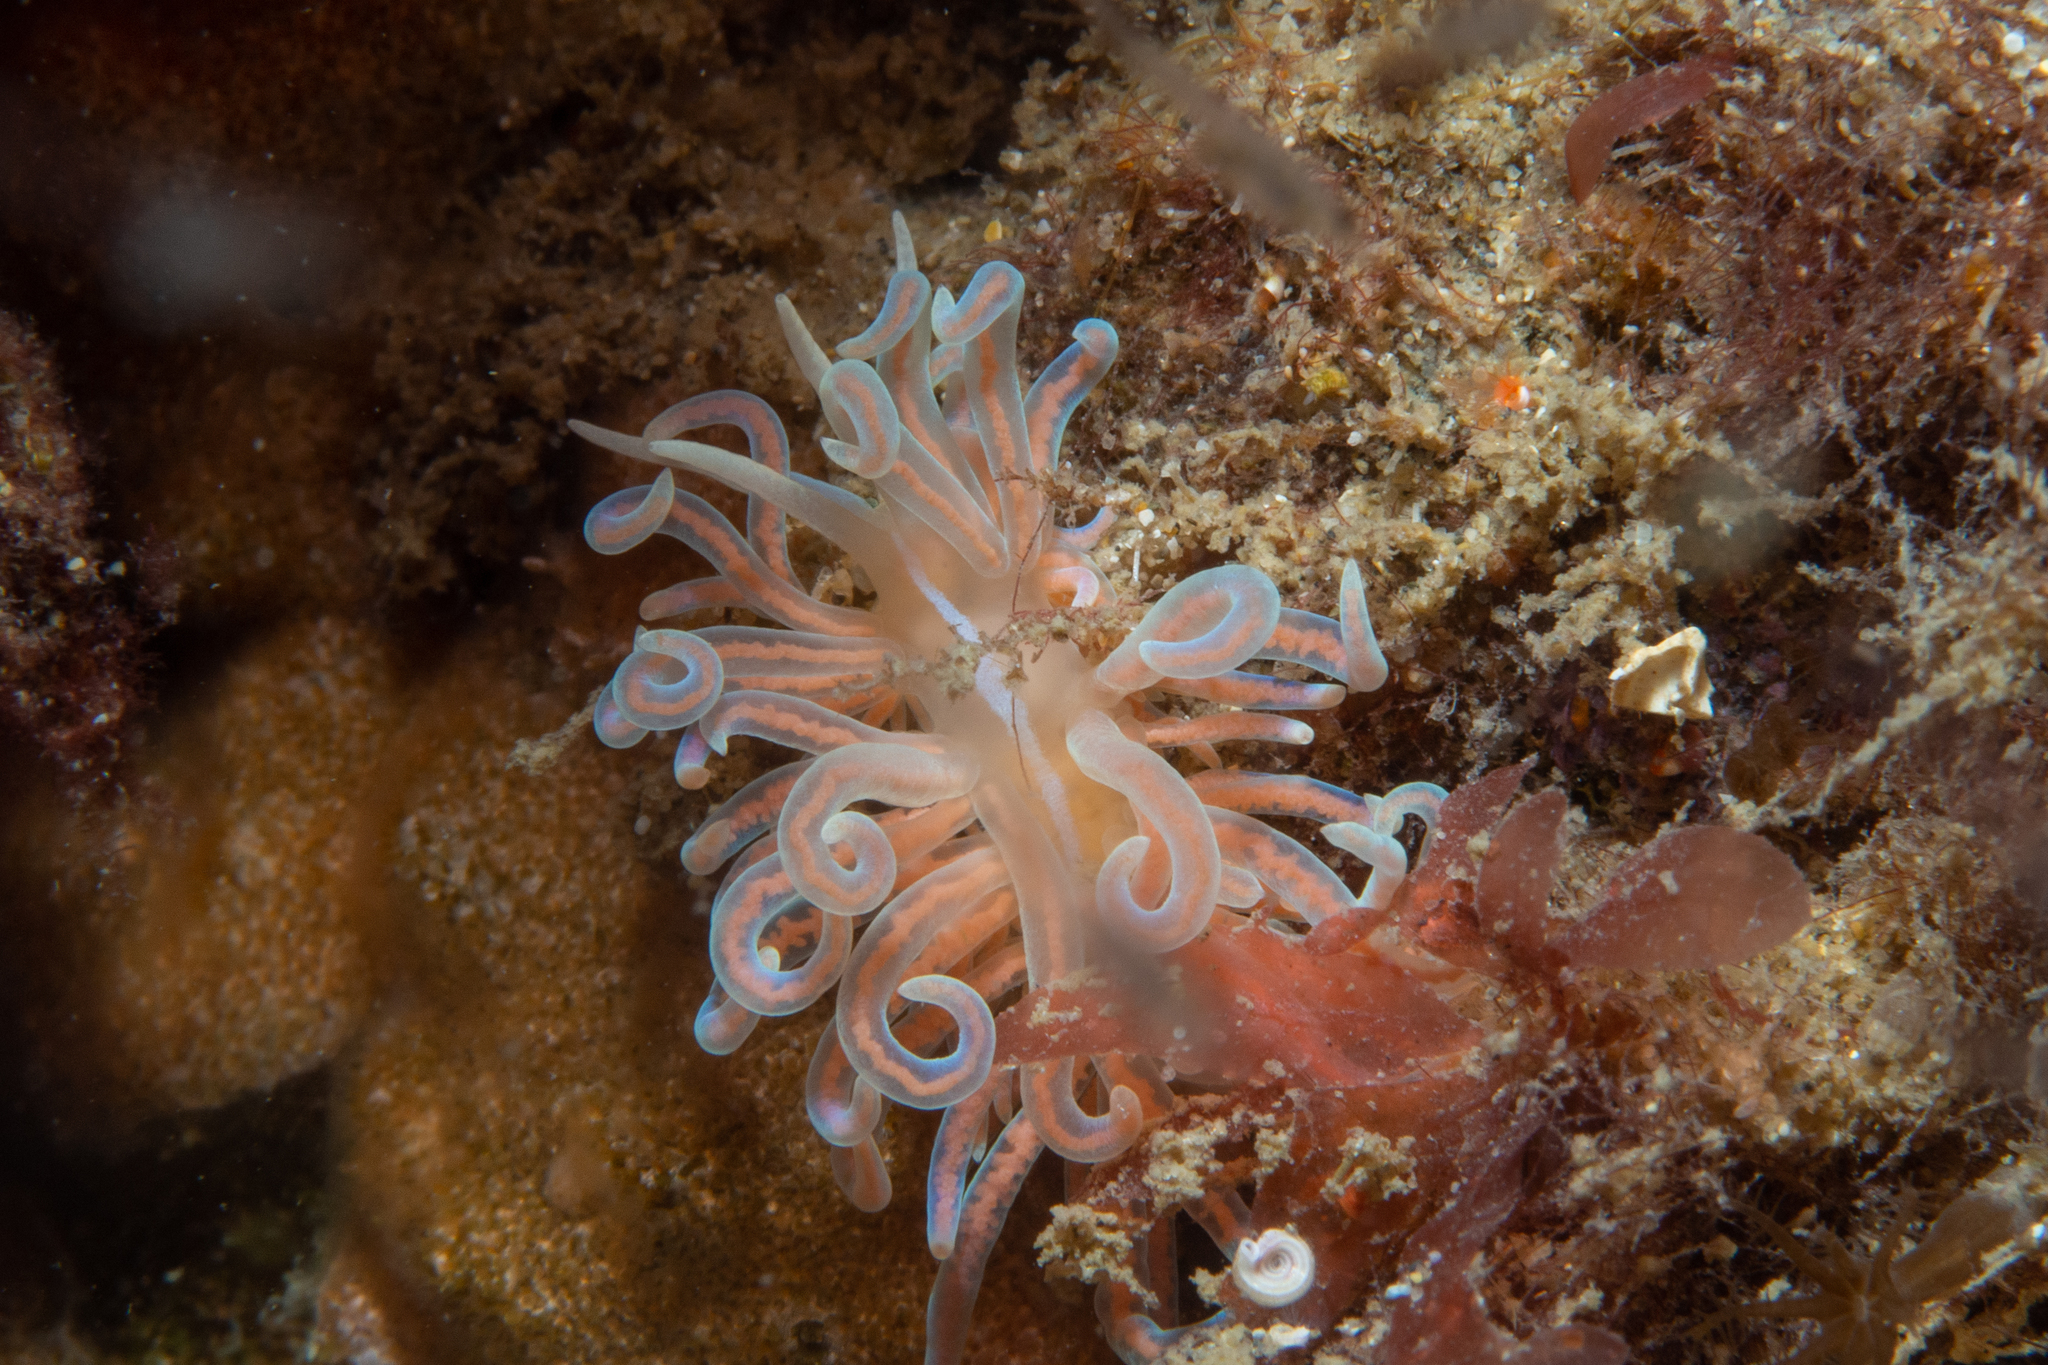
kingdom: Animalia
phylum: Mollusca
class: Gastropoda
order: Nudibranchia
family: Myrrhinidae
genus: Phyllodesmium
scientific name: Phyllodesmium serratum
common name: Coral nudibranch
